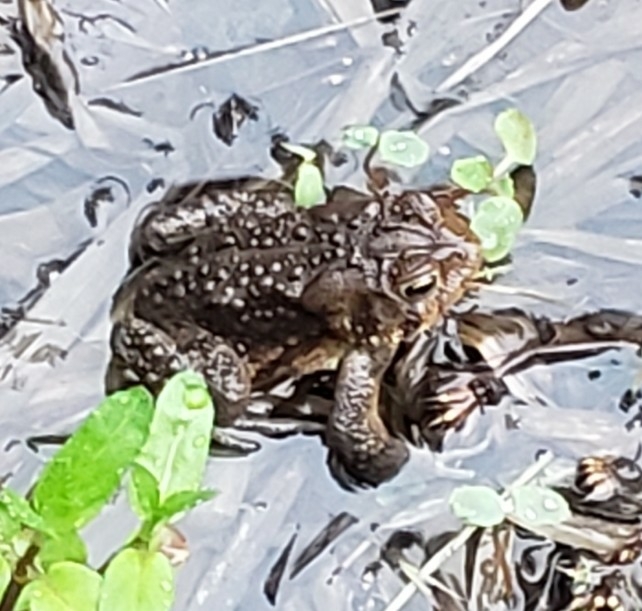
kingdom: Animalia
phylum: Chordata
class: Amphibia
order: Anura
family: Bufonidae
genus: Anaxyrus
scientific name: Anaxyrus americanus
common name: American toad
